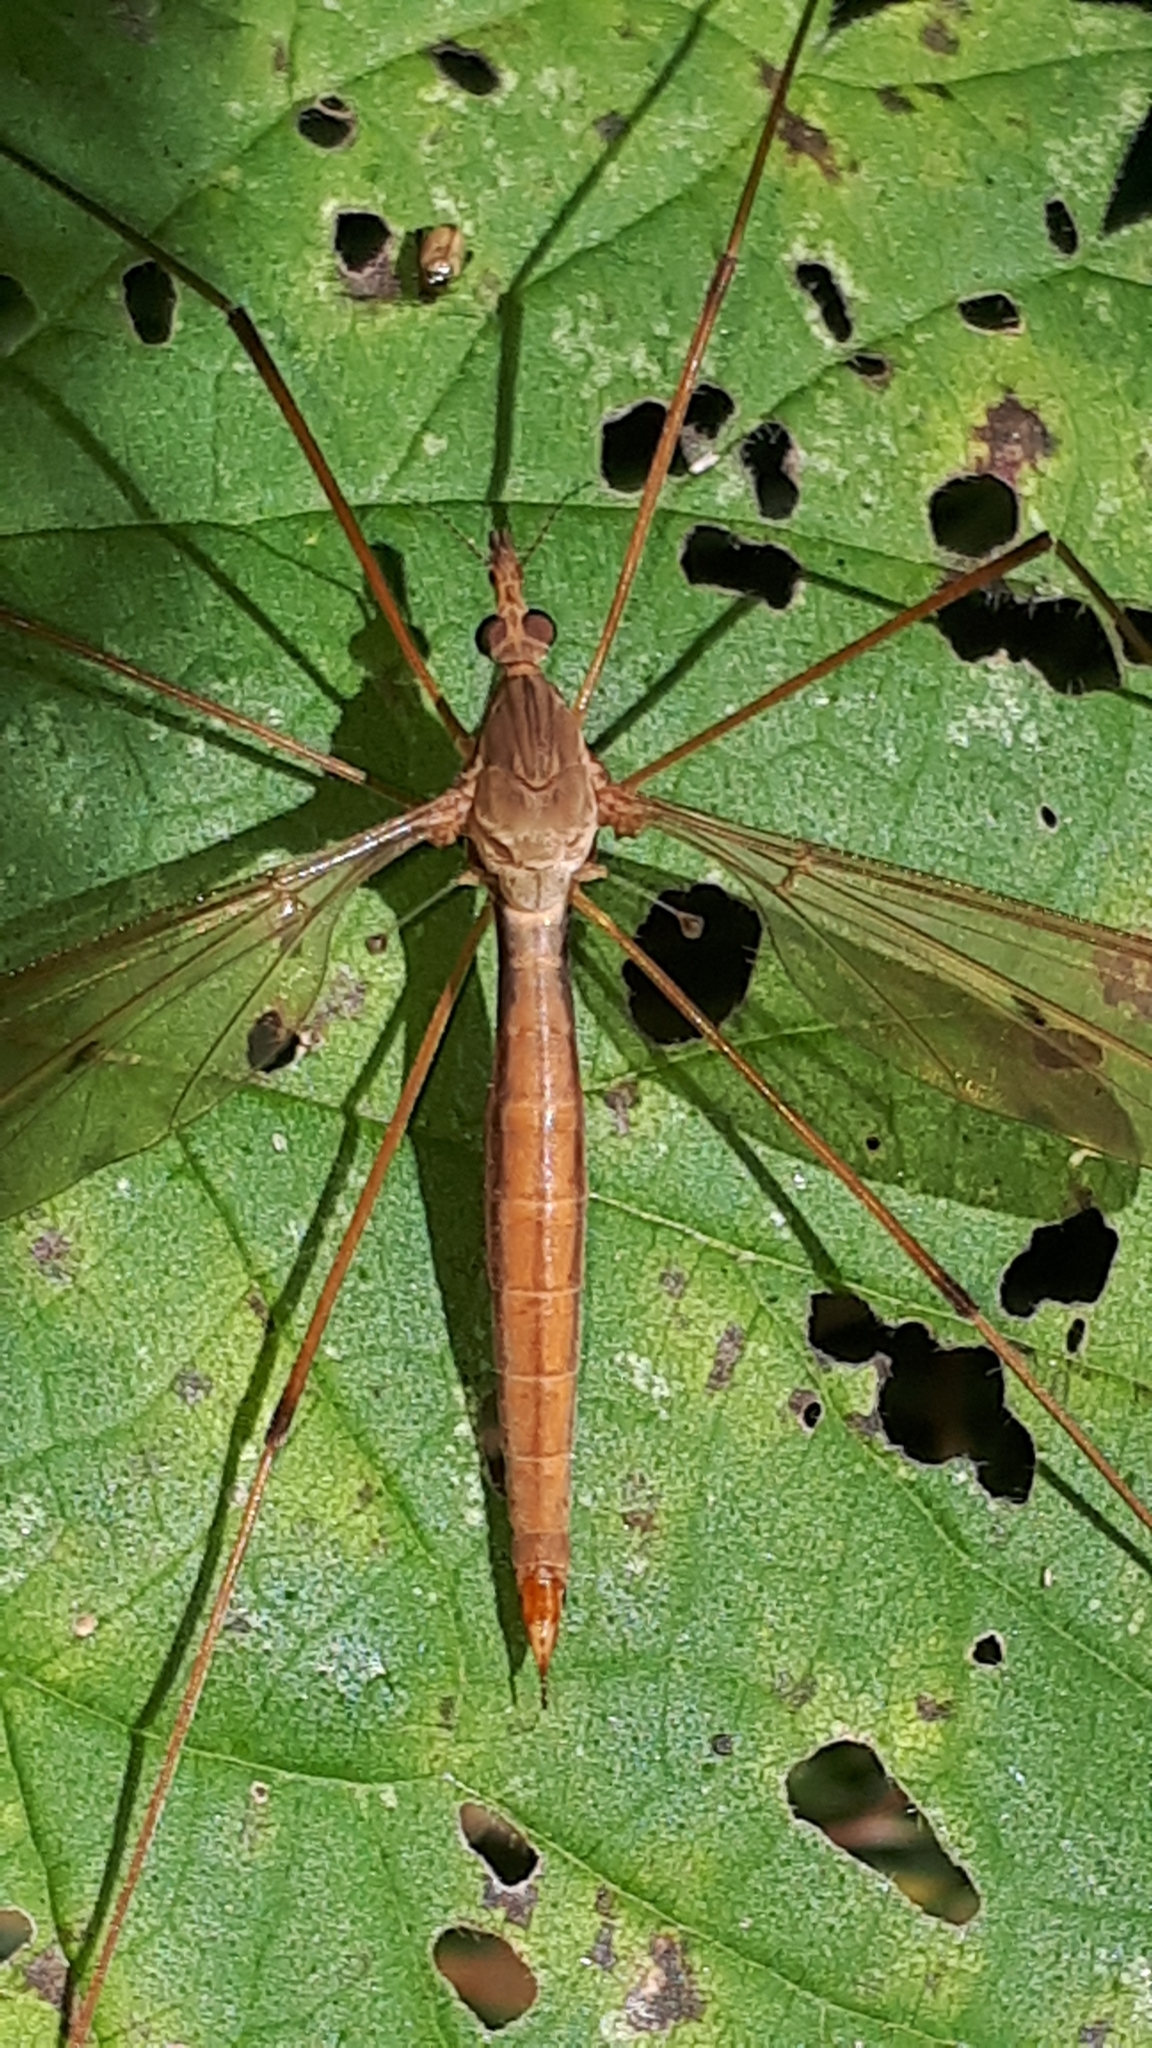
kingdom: Animalia
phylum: Arthropoda
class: Insecta
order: Diptera
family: Tipulidae
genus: Tipula
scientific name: Tipula fulvipennis
